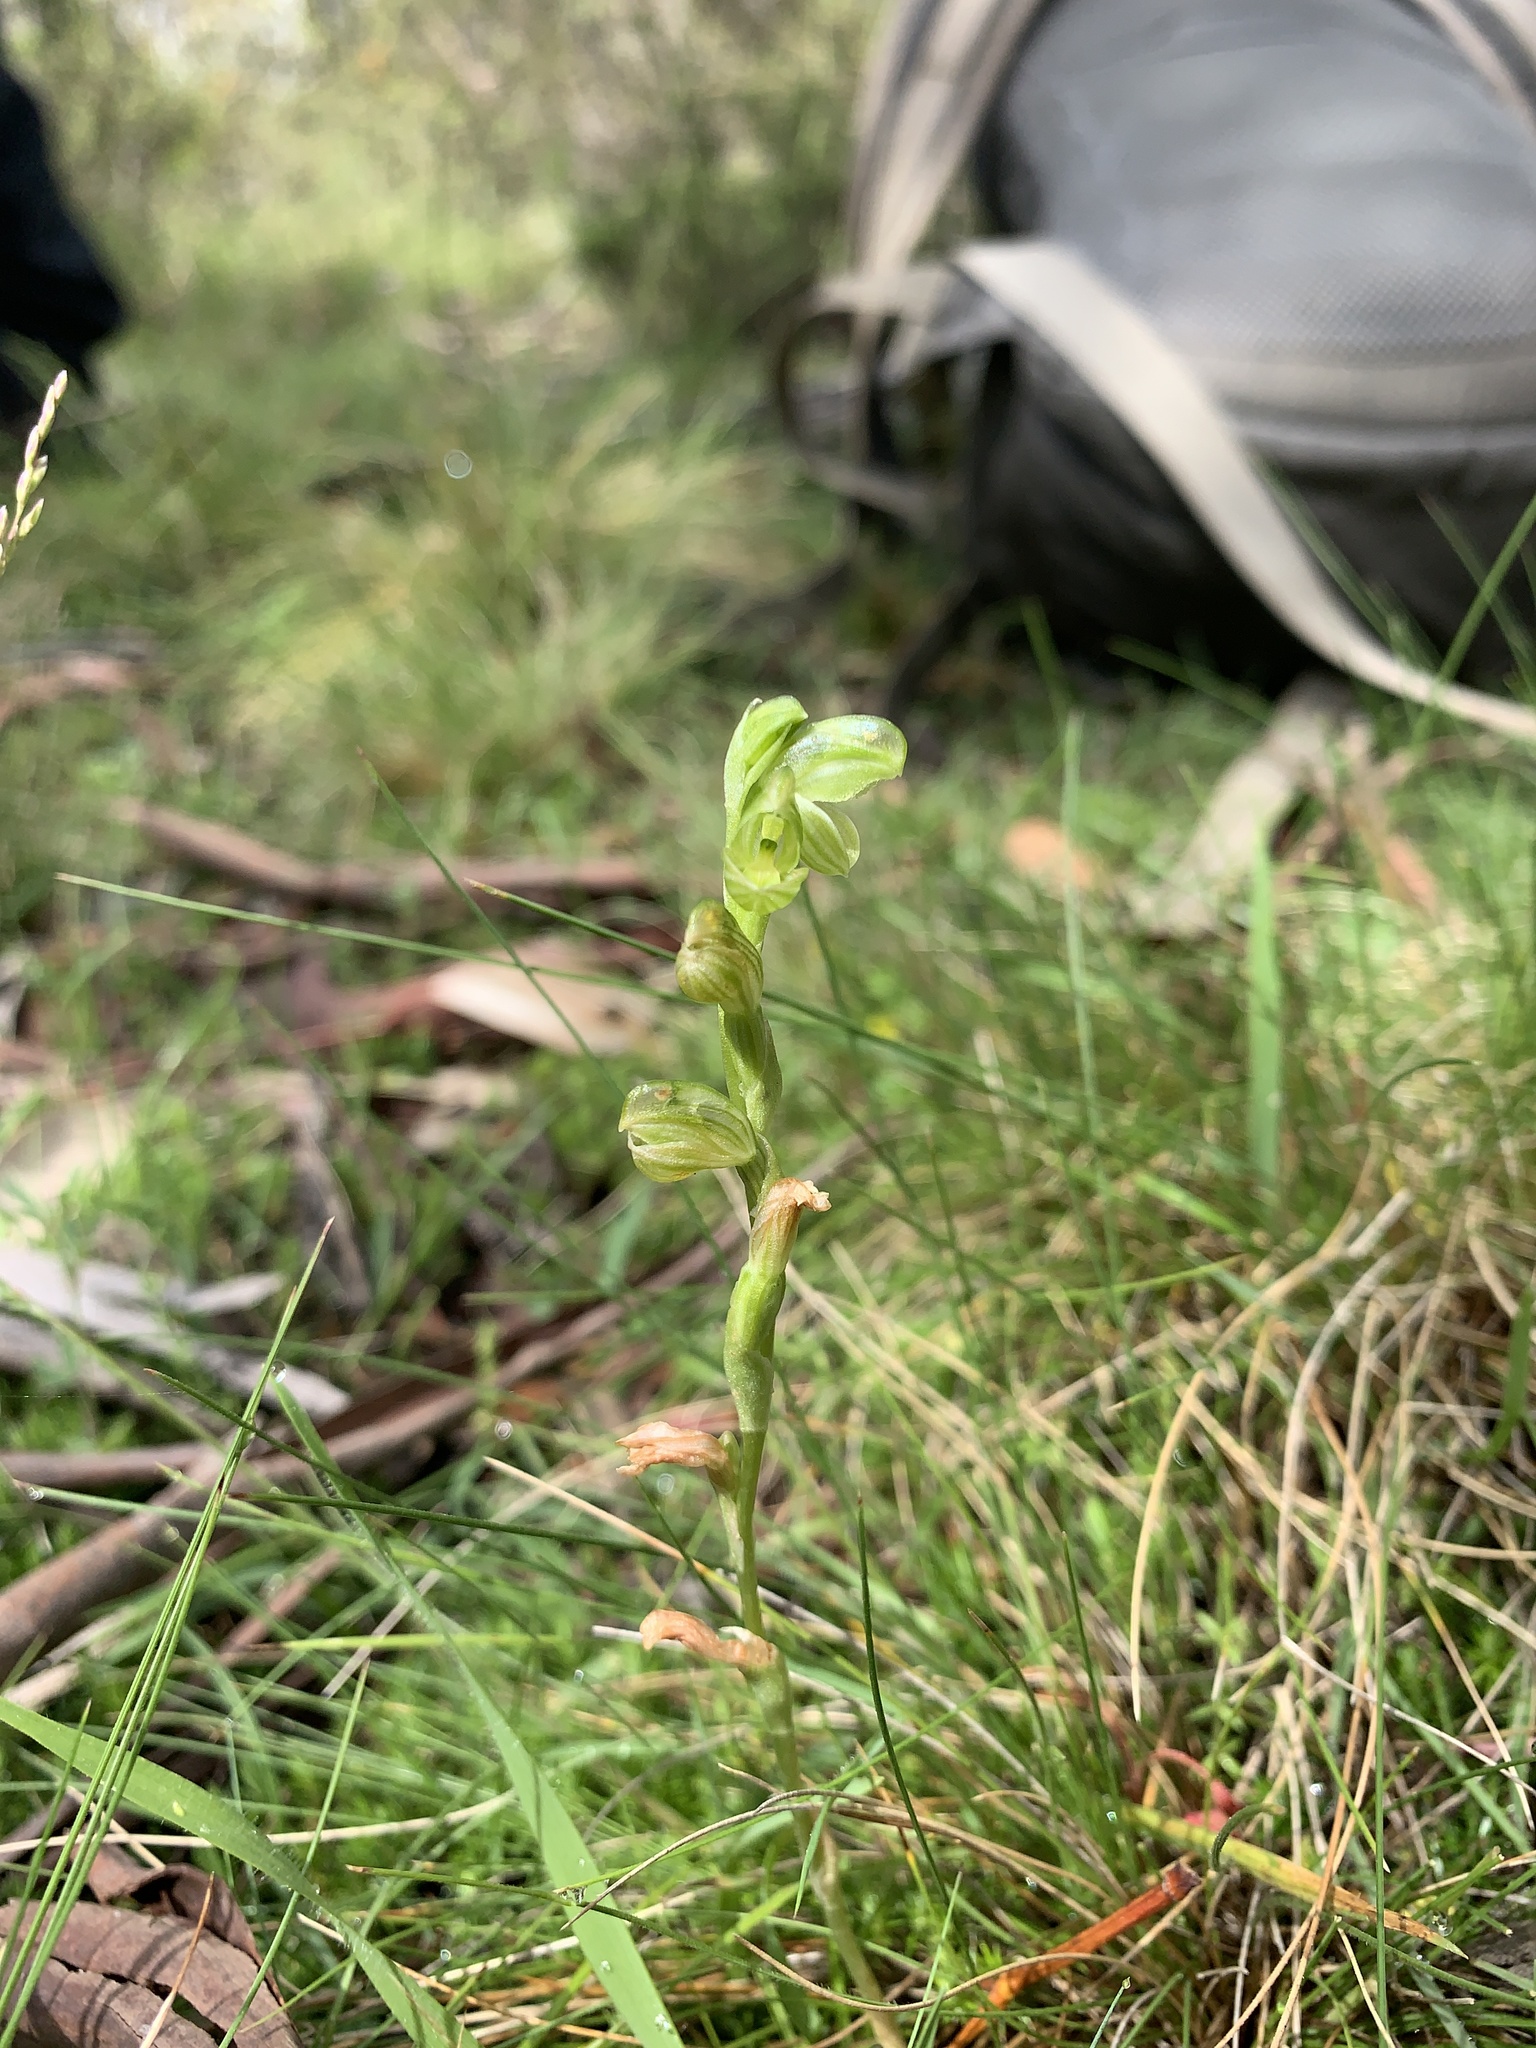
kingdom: Plantae
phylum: Tracheophyta
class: Liliopsida
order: Asparagales
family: Orchidaceae
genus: Pterostylis
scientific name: Pterostylis mutica
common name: Midget greenhood
